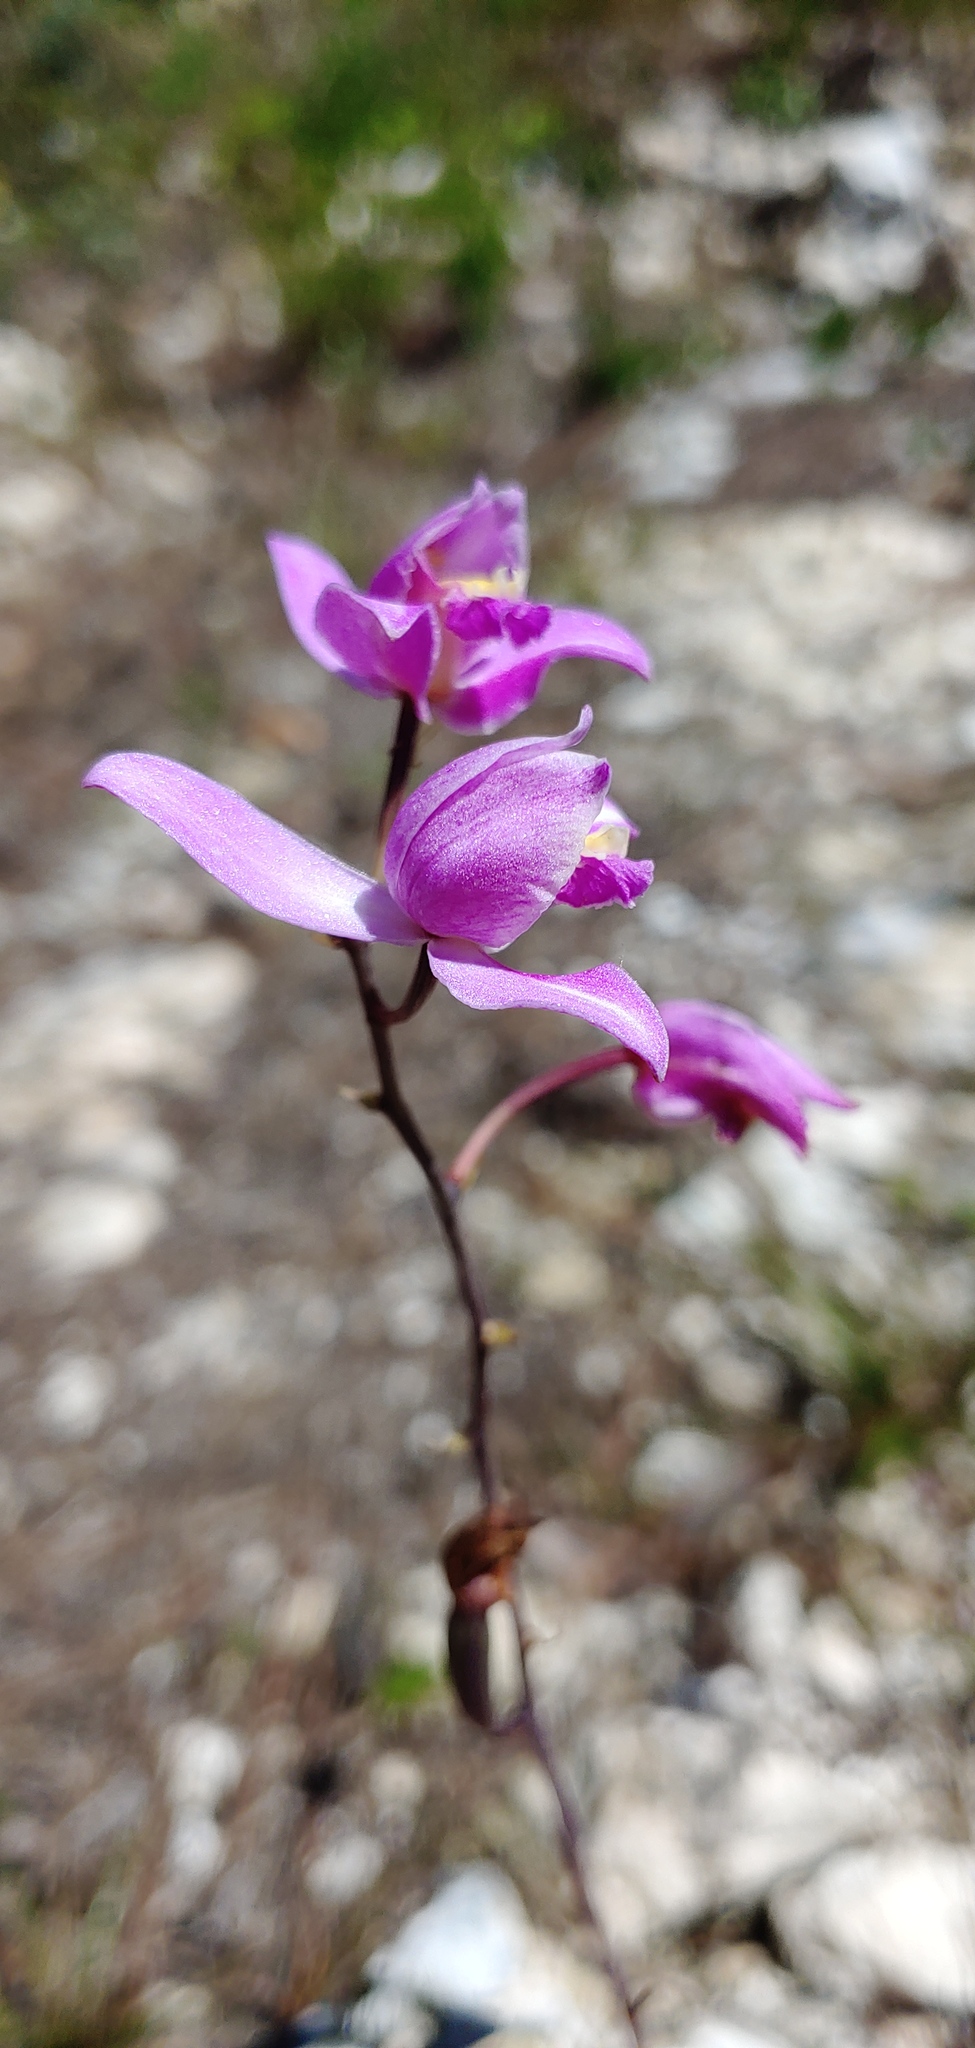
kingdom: Plantae
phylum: Tracheophyta
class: Liliopsida
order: Asparagales
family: Orchidaceae
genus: Bletia
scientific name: Bletia purpurea
